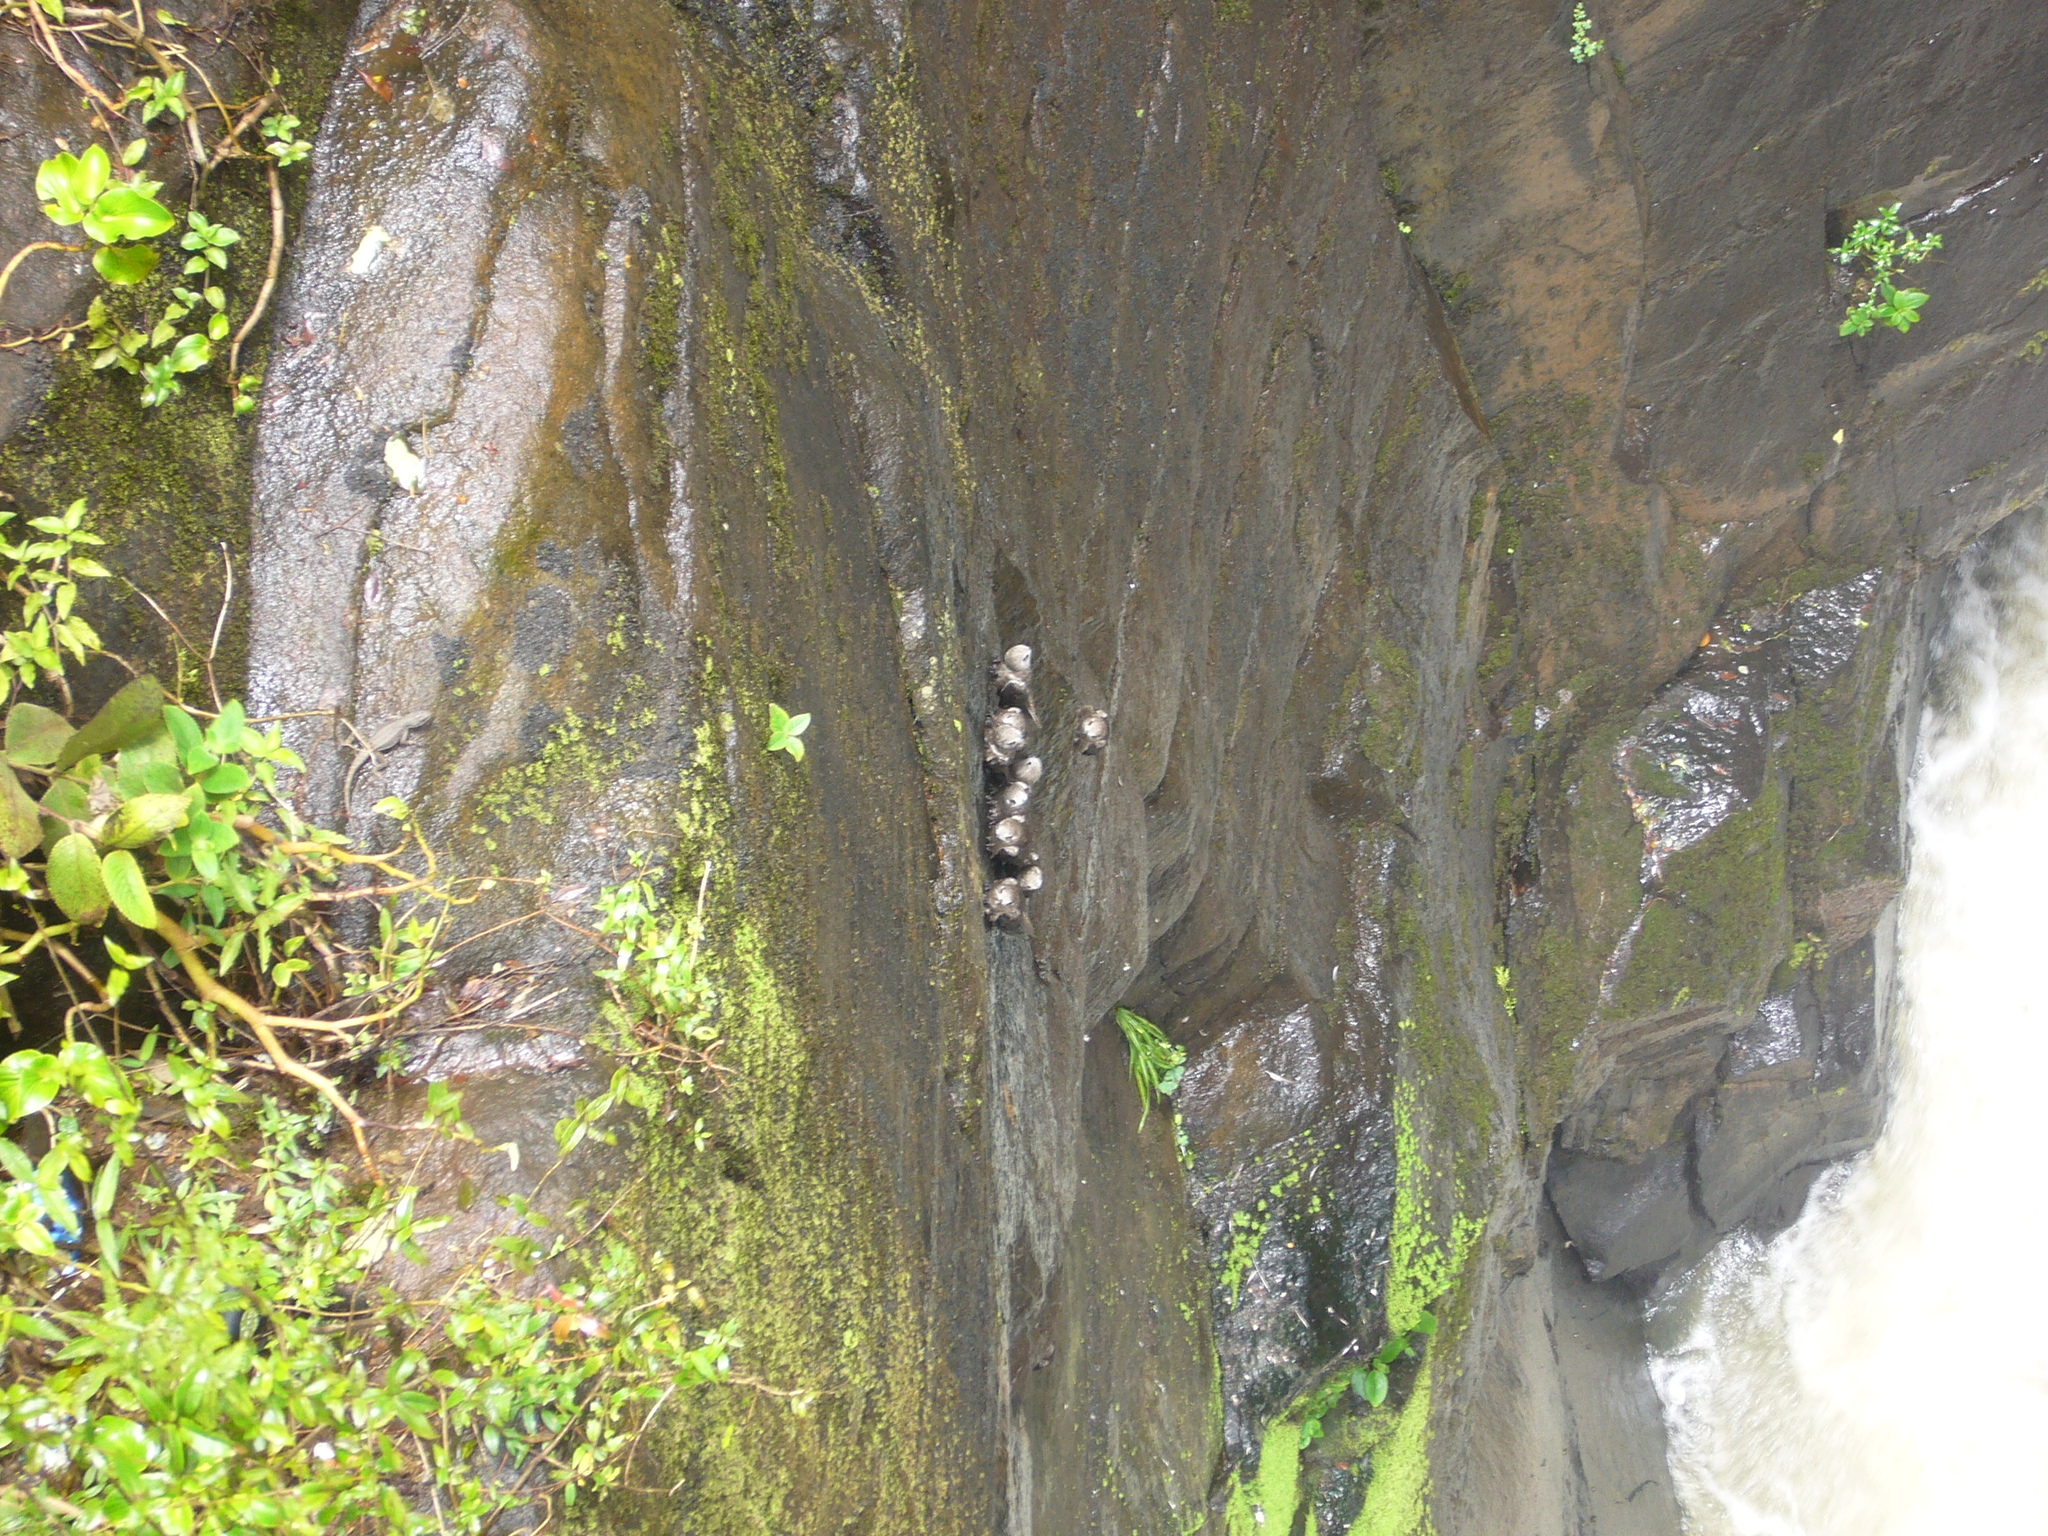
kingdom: Animalia
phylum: Chordata
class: Aves
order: Apodiformes
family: Apodidae
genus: Cypseloides
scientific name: Cypseloides senex
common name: Great dusky swift
